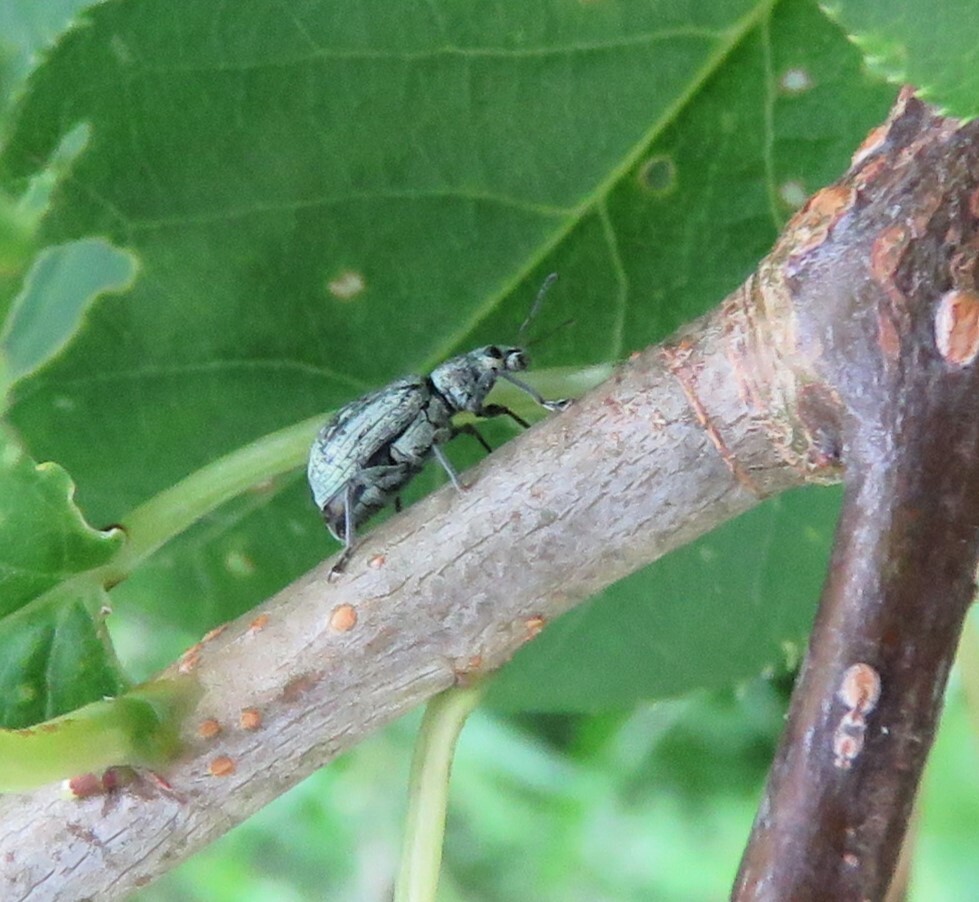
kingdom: Animalia
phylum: Arthropoda
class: Insecta
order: Coleoptera
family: Curculionidae
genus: Polydrusus
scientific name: Polydrusus cervinus
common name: Weevil
